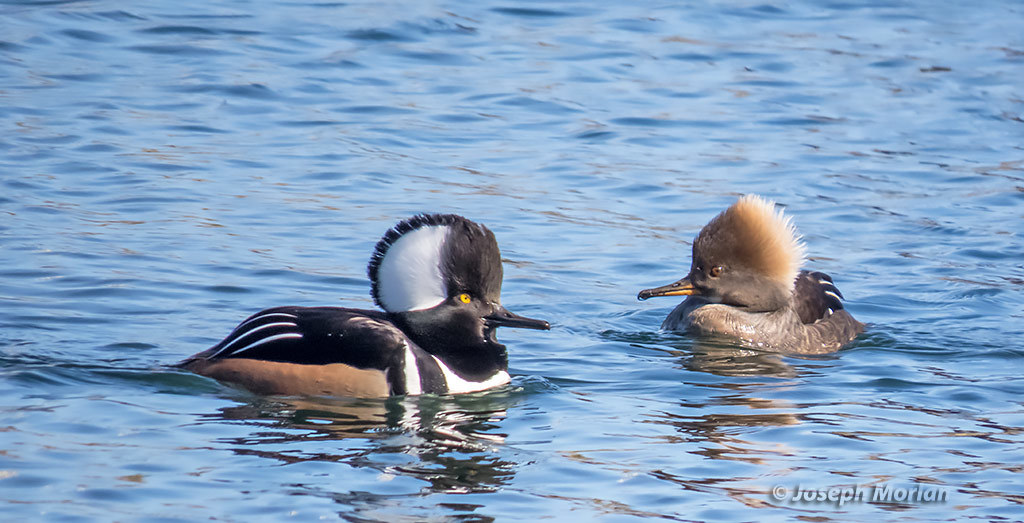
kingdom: Animalia
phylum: Chordata
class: Aves
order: Anseriformes
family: Anatidae
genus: Lophodytes
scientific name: Lophodytes cucullatus
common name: Hooded merganser
